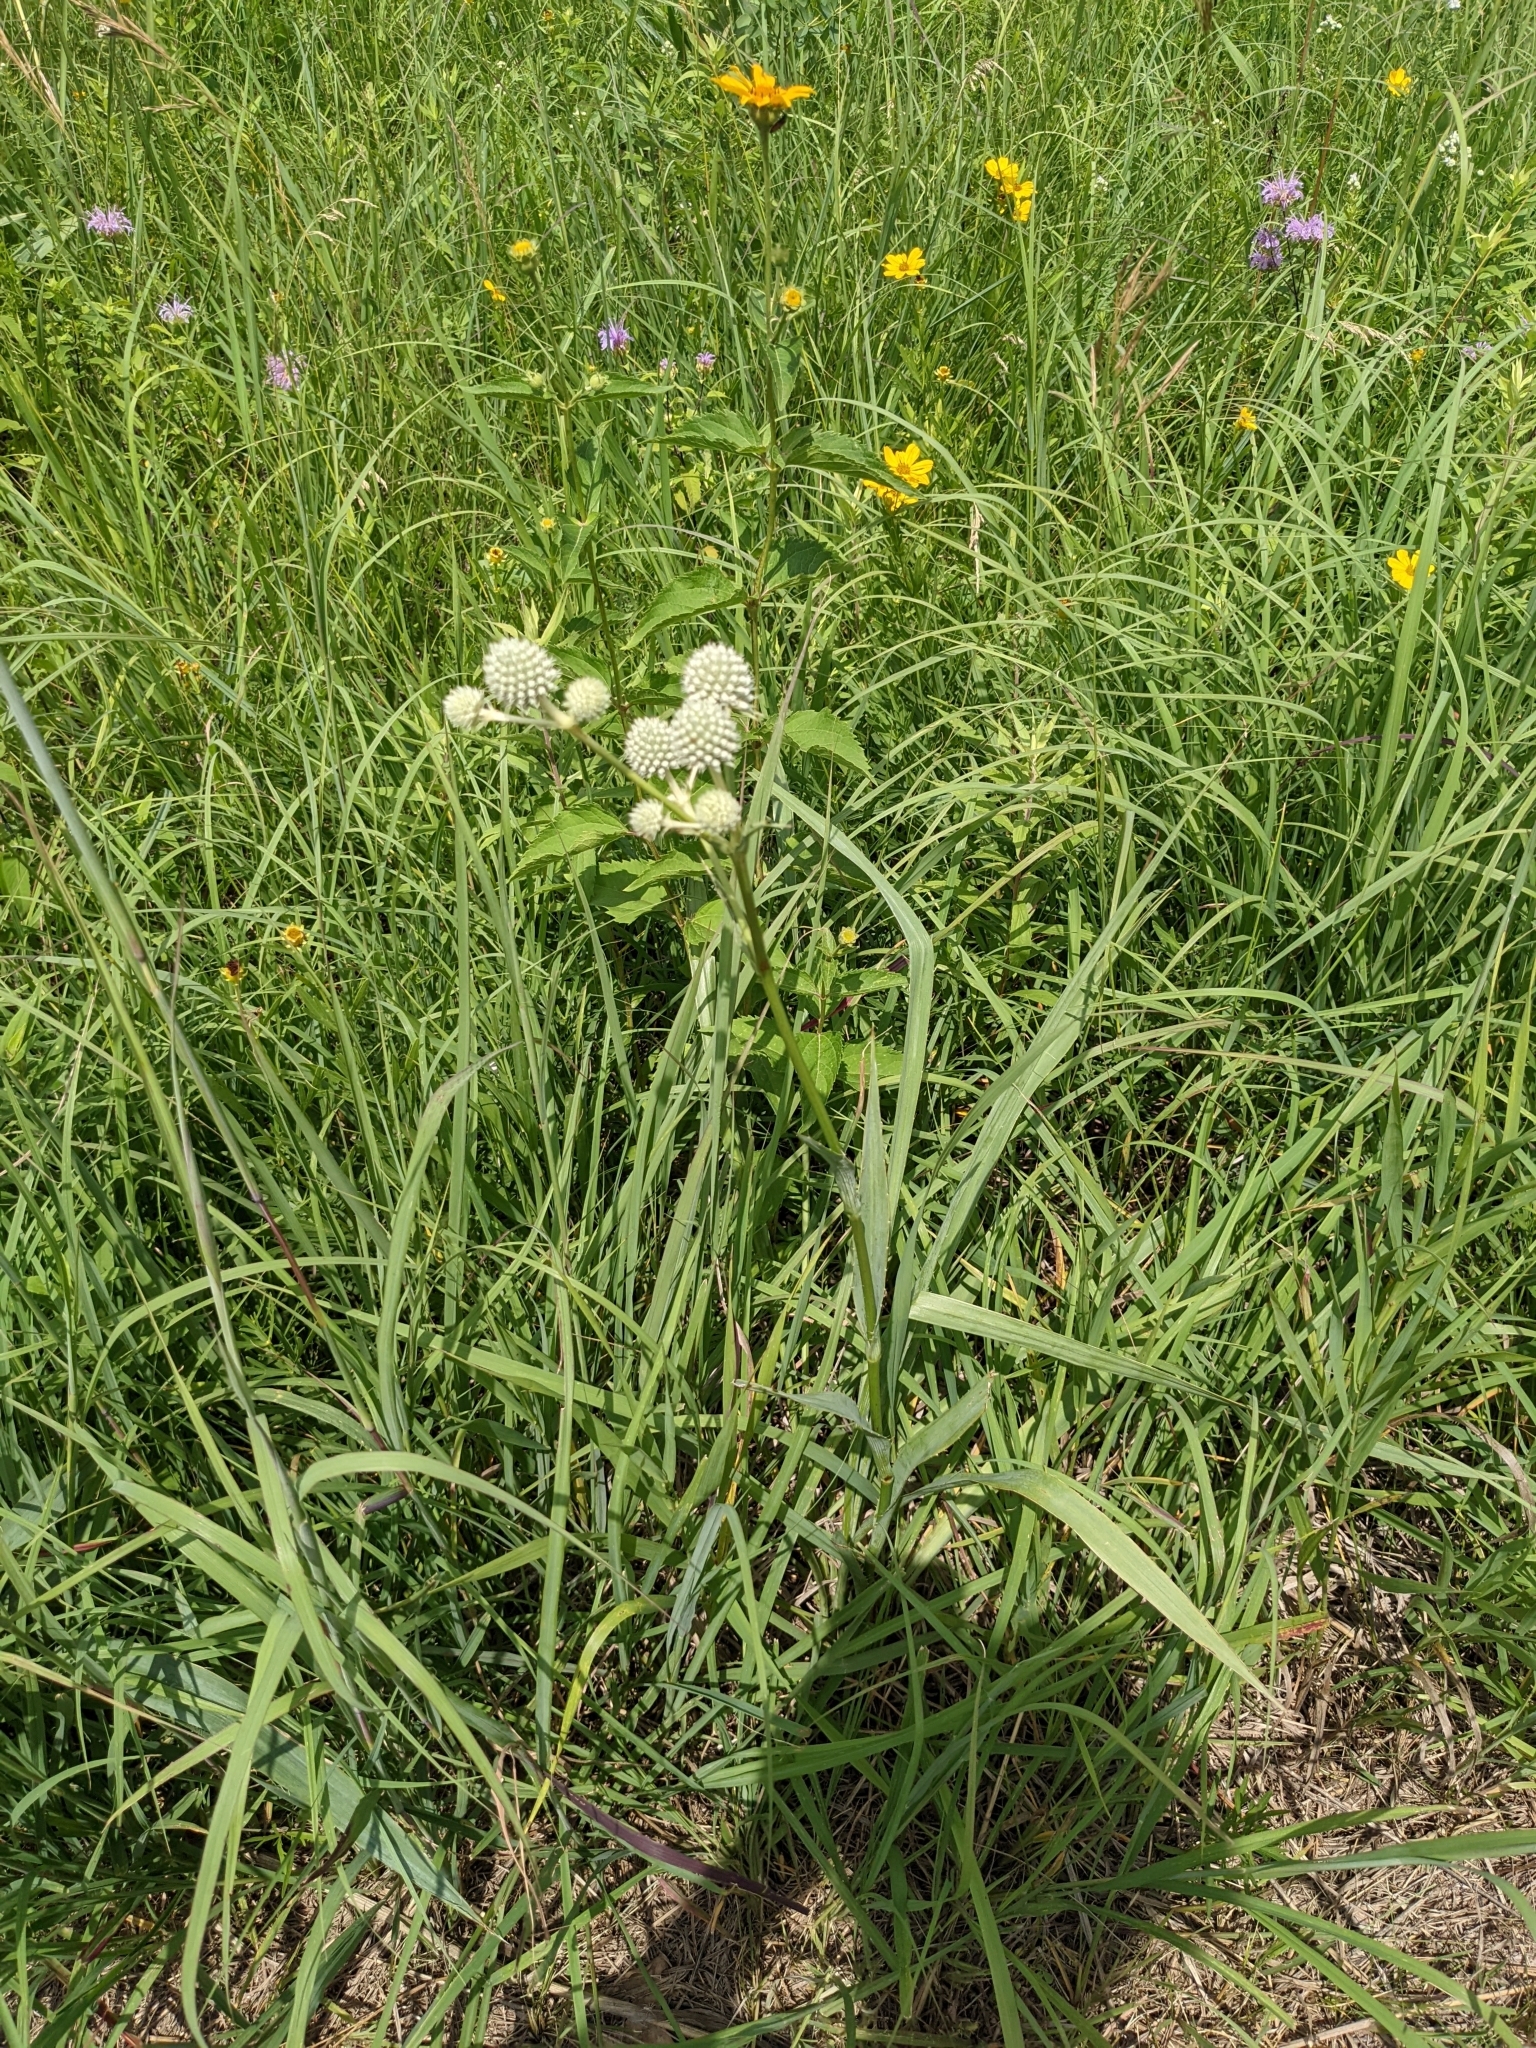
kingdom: Plantae
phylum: Tracheophyta
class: Magnoliopsida
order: Apiales
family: Apiaceae
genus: Eryngium
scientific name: Eryngium yuccifolium
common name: Button eryngo
